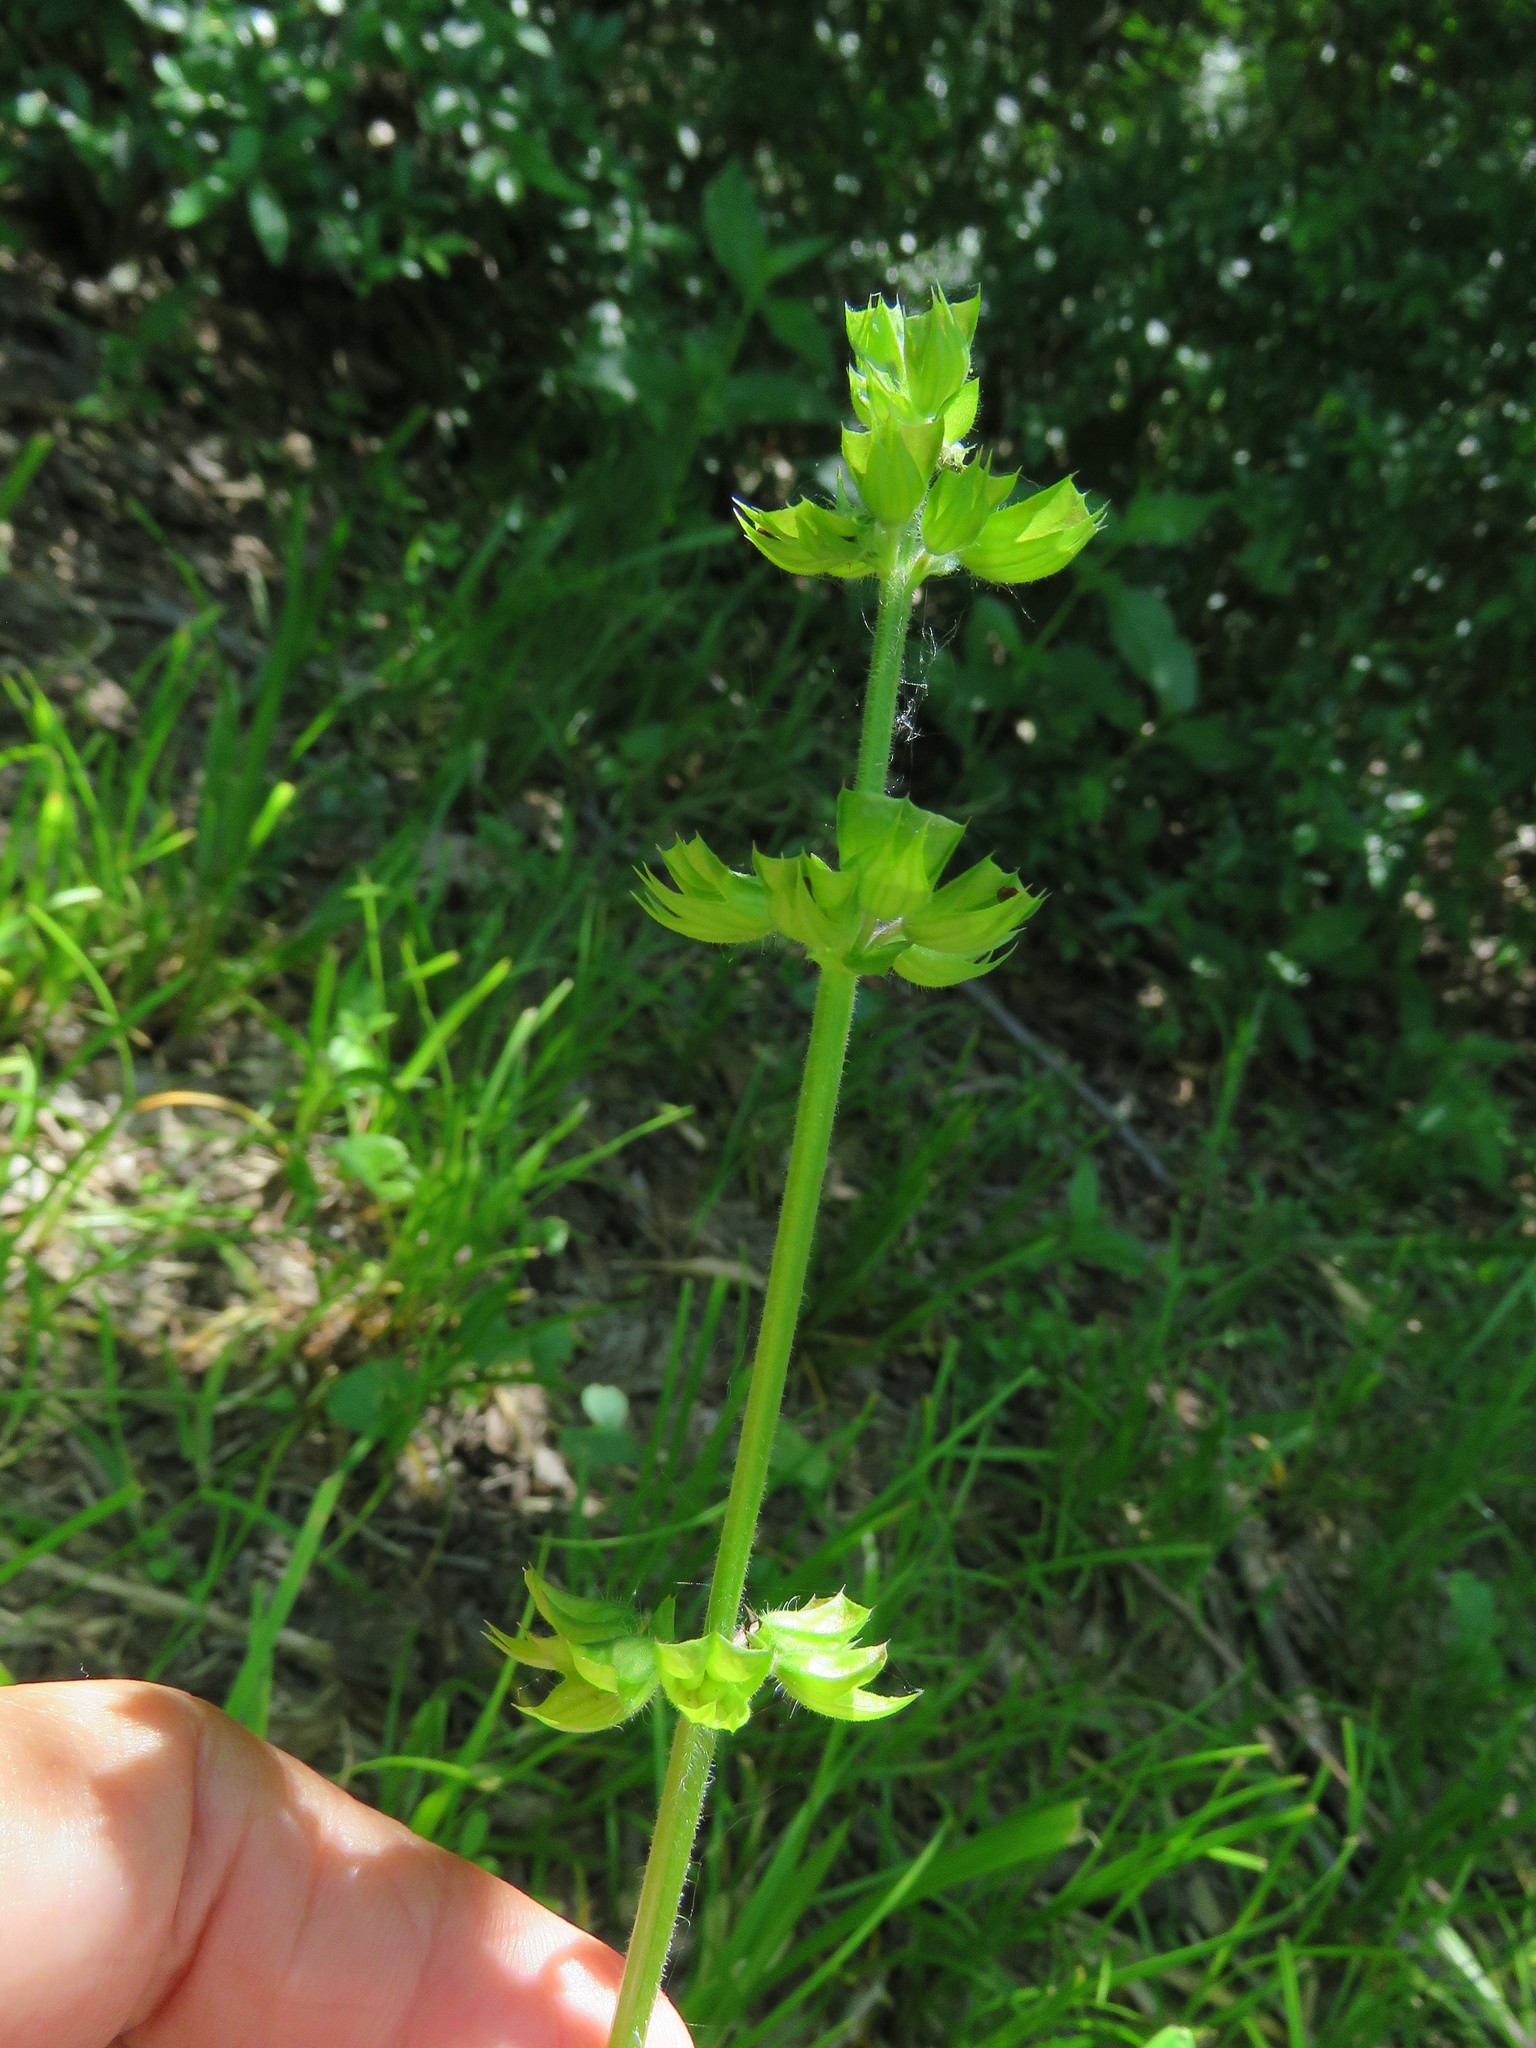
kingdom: Plantae
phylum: Tracheophyta
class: Magnoliopsida
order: Lamiales
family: Lamiaceae
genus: Salvia
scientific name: Salvia lyrata
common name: Cancerweed
